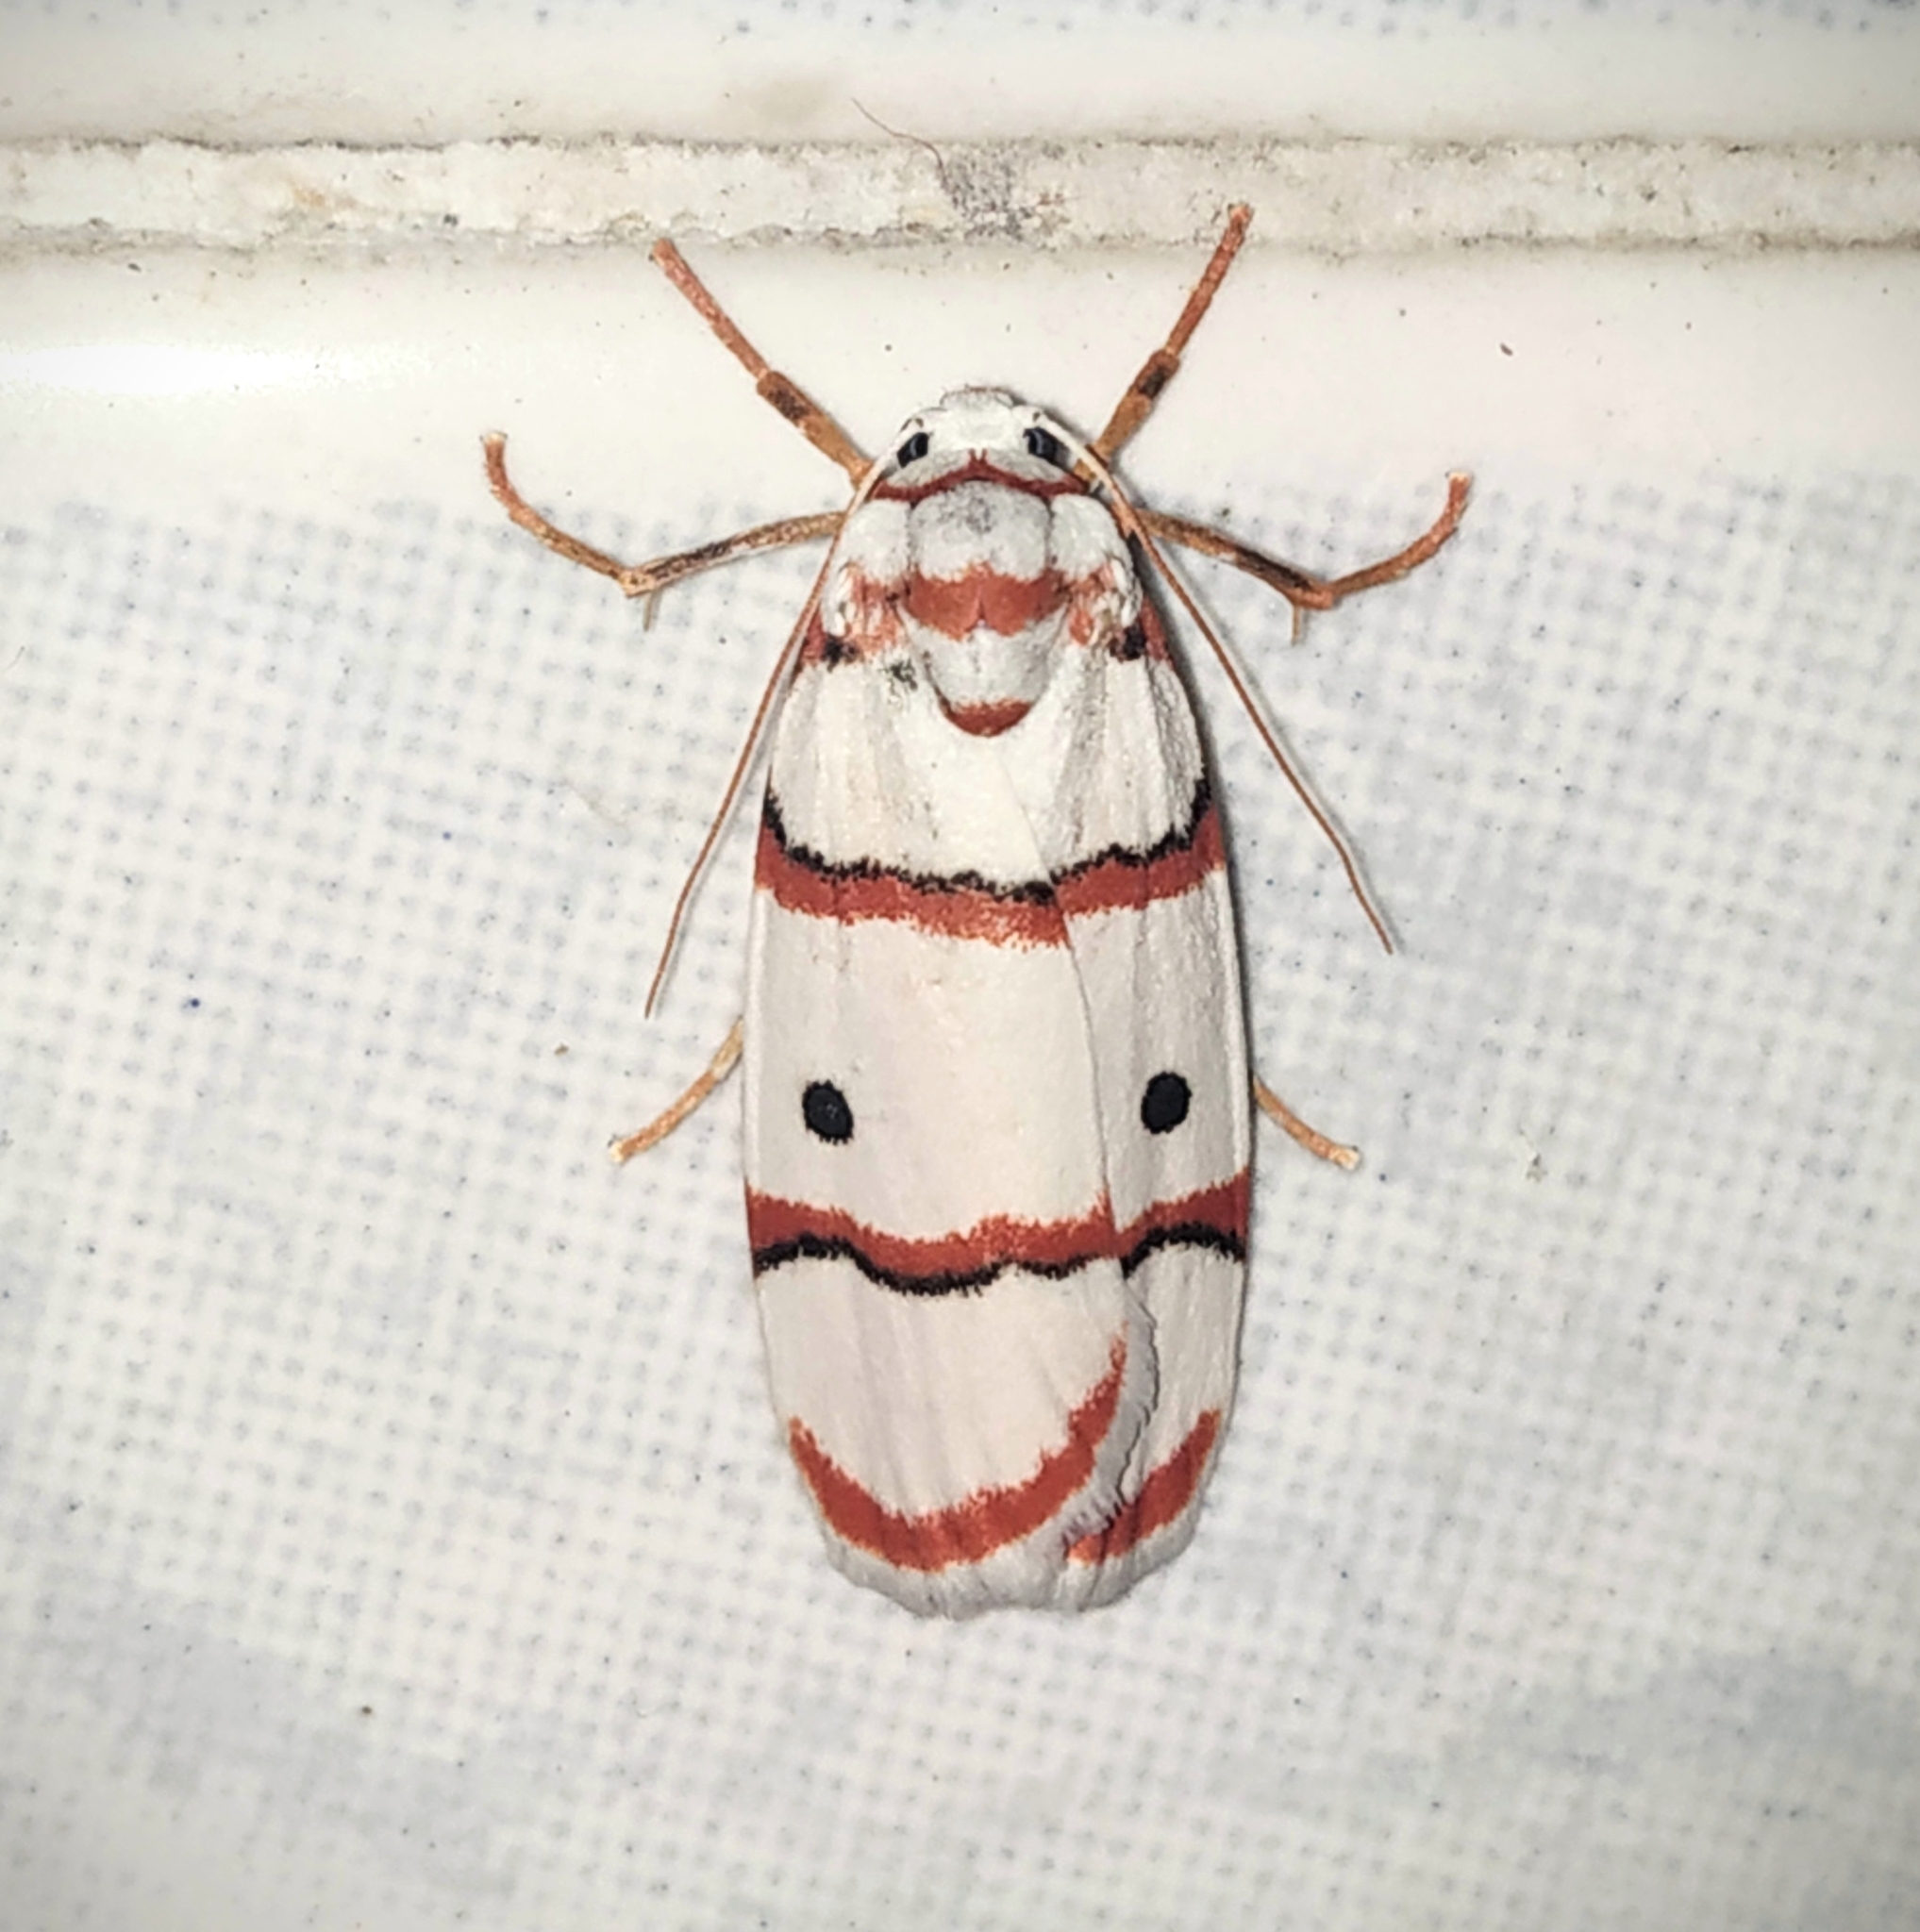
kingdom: Animalia
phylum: Arthropoda
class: Insecta
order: Lepidoptera
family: Erebidae
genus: Cyana
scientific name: Cyana peregrina
